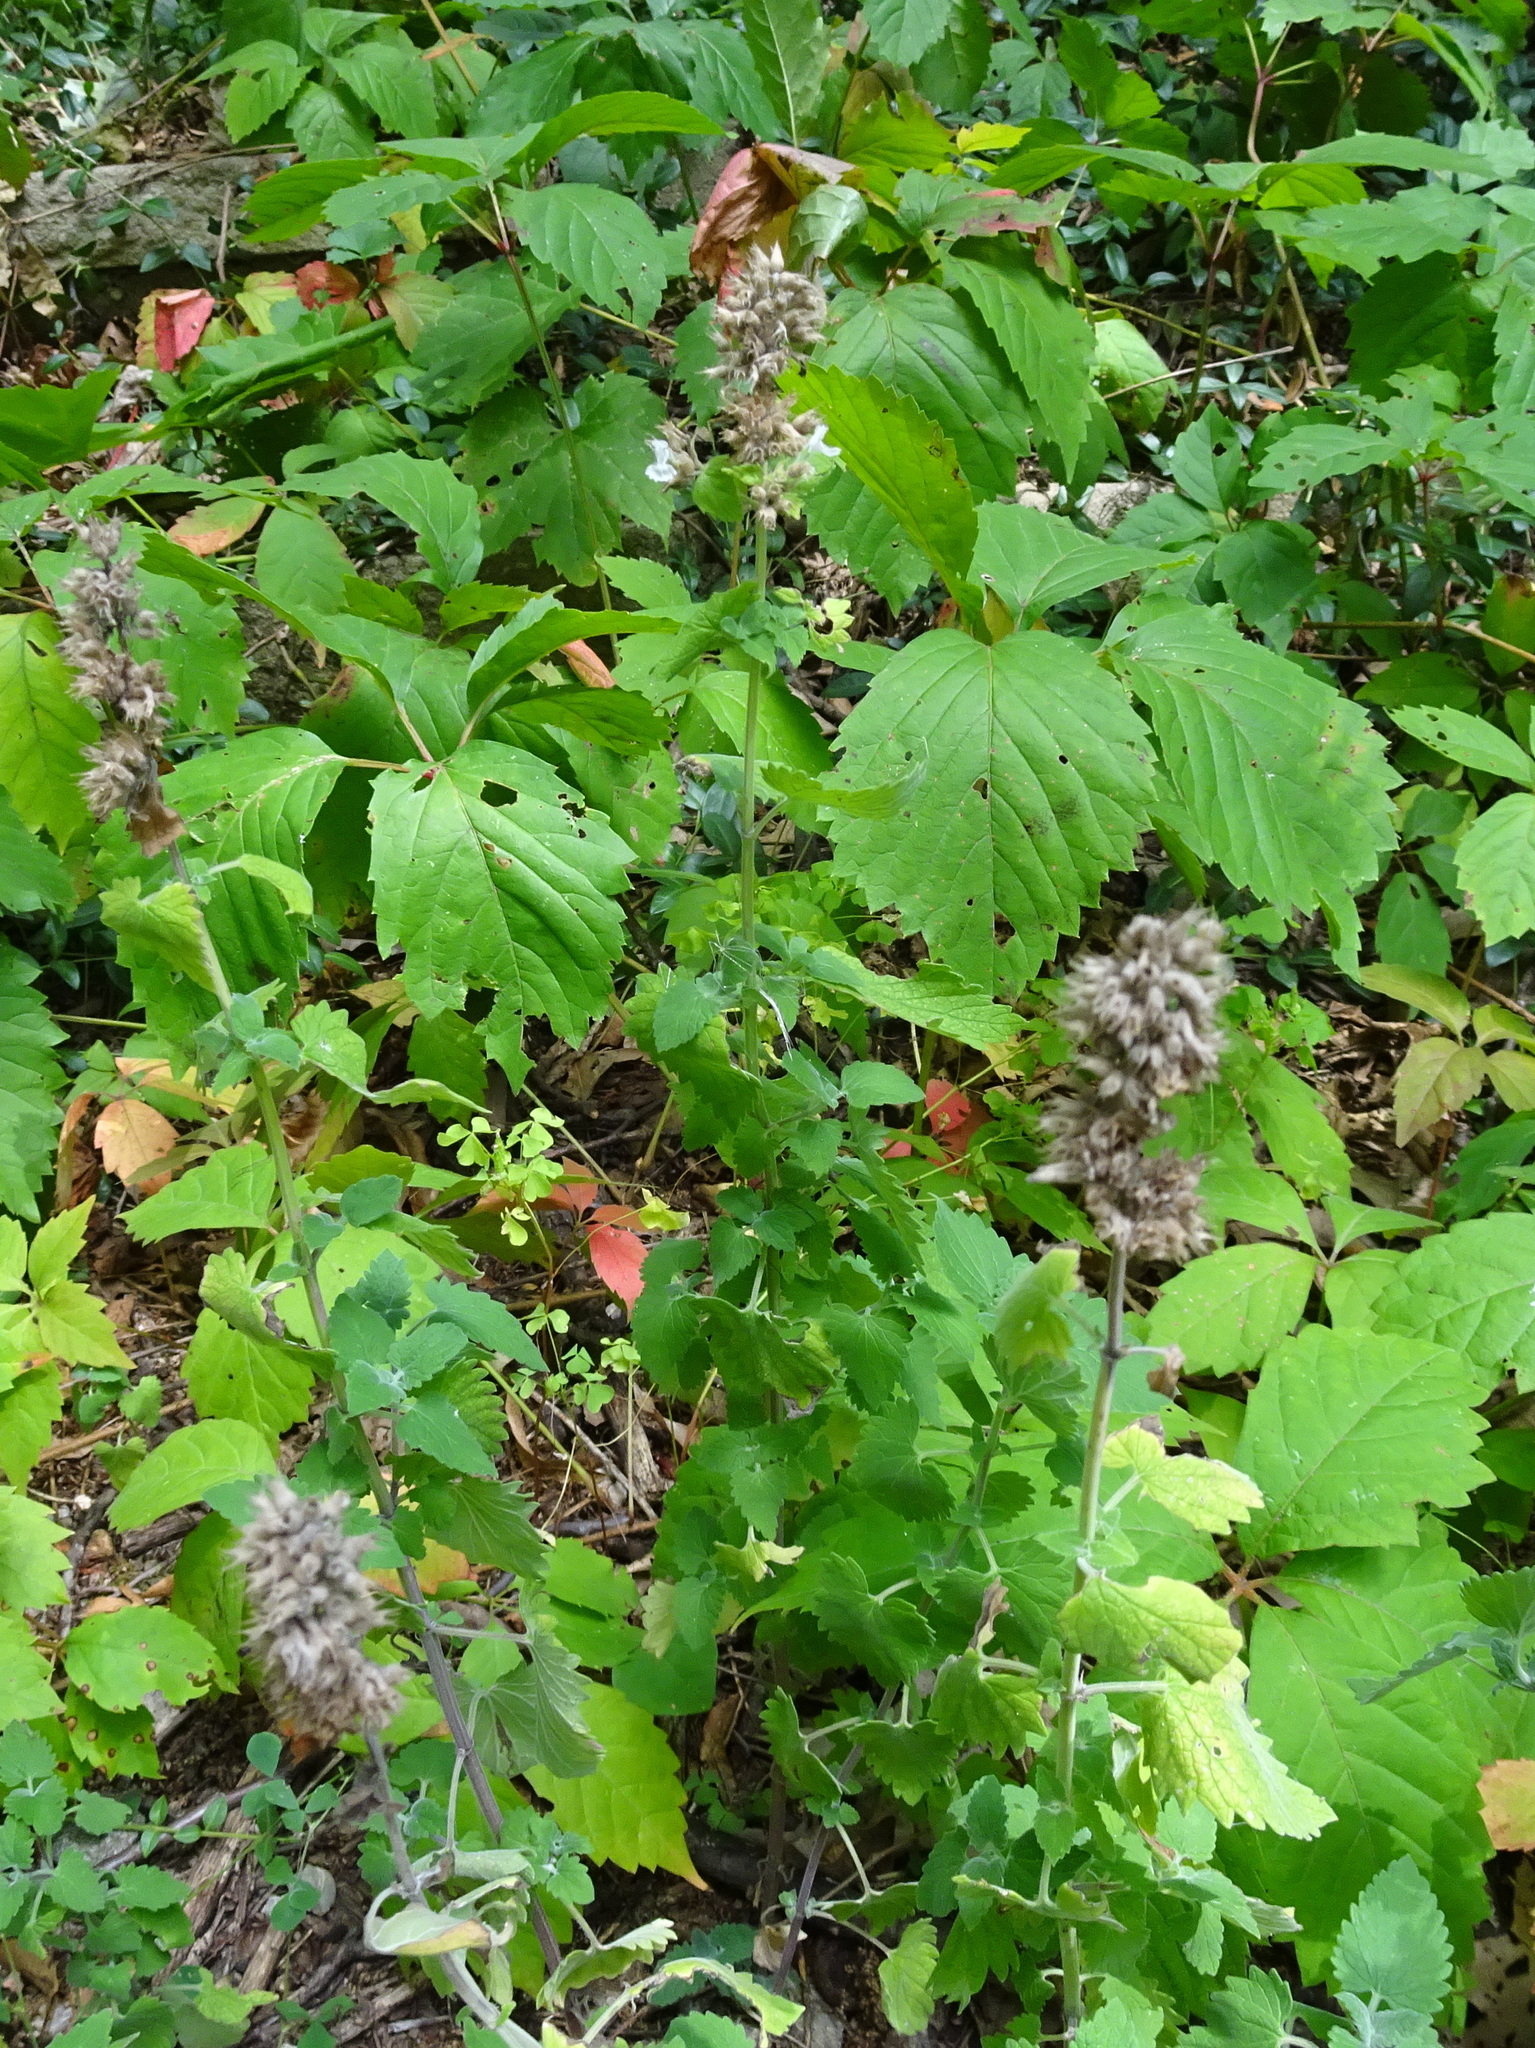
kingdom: Plantae
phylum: Tracheophyta
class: Magnoliopsida
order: Lamiales
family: Lamiaceae
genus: Nepeta
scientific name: Nepeta cataria
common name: Catnip
